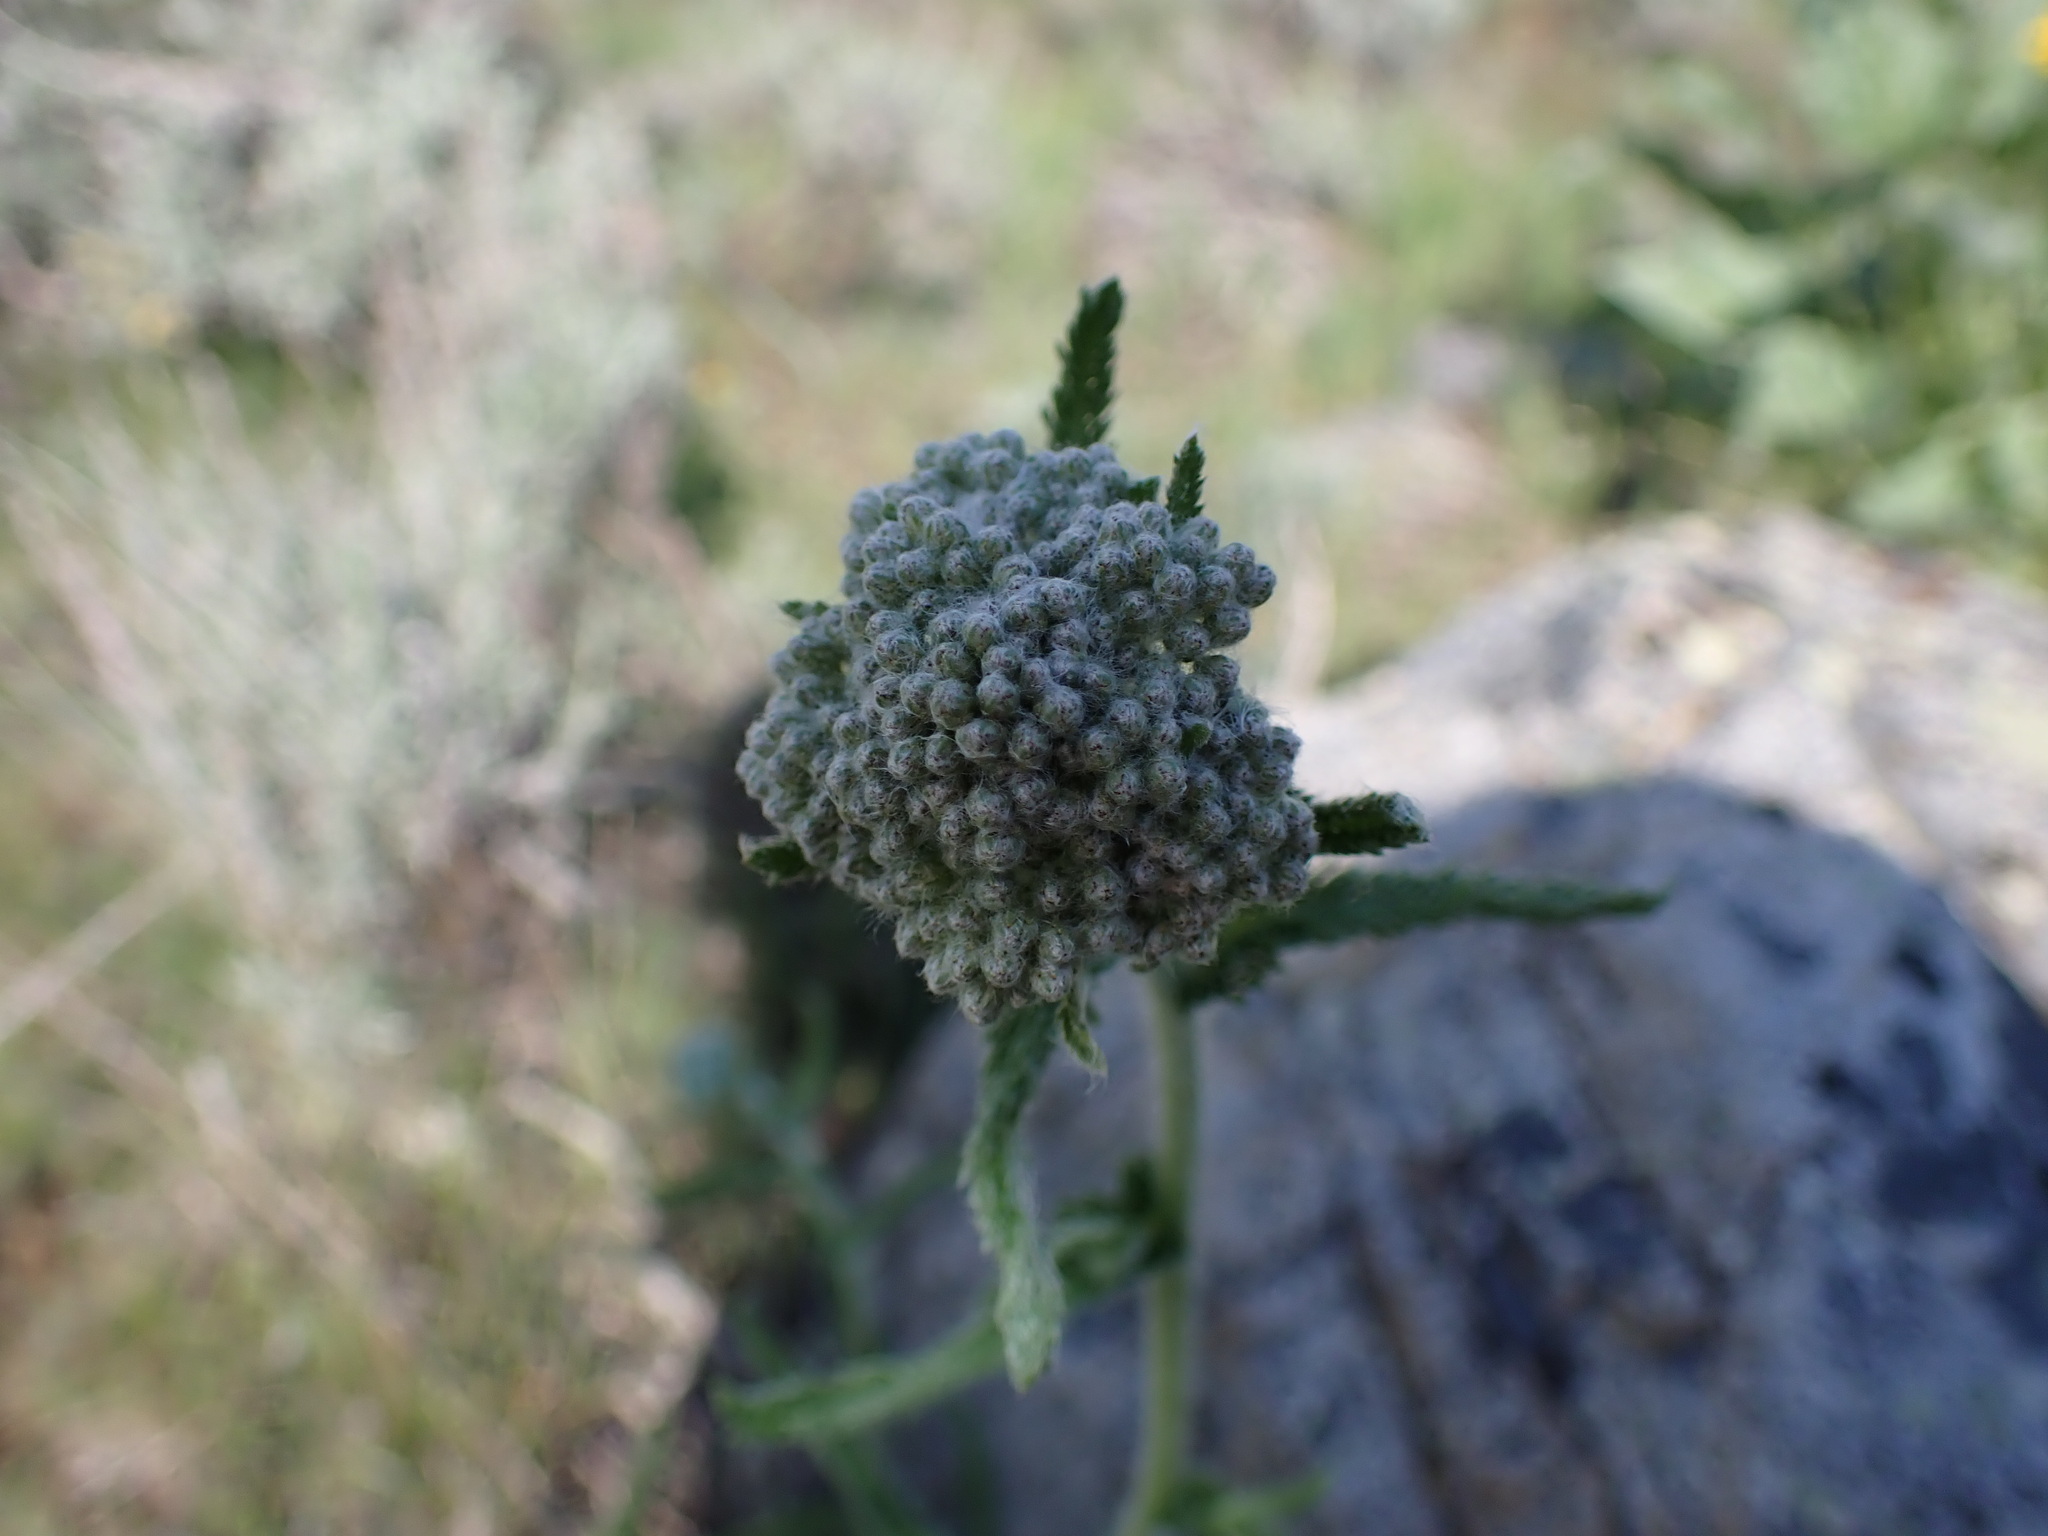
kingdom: Plantae
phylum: Tracheophyta
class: Magnoliopsida
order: Asterales
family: Asteraceae
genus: Achillea
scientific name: Achillea millefolium
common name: Yarrow
